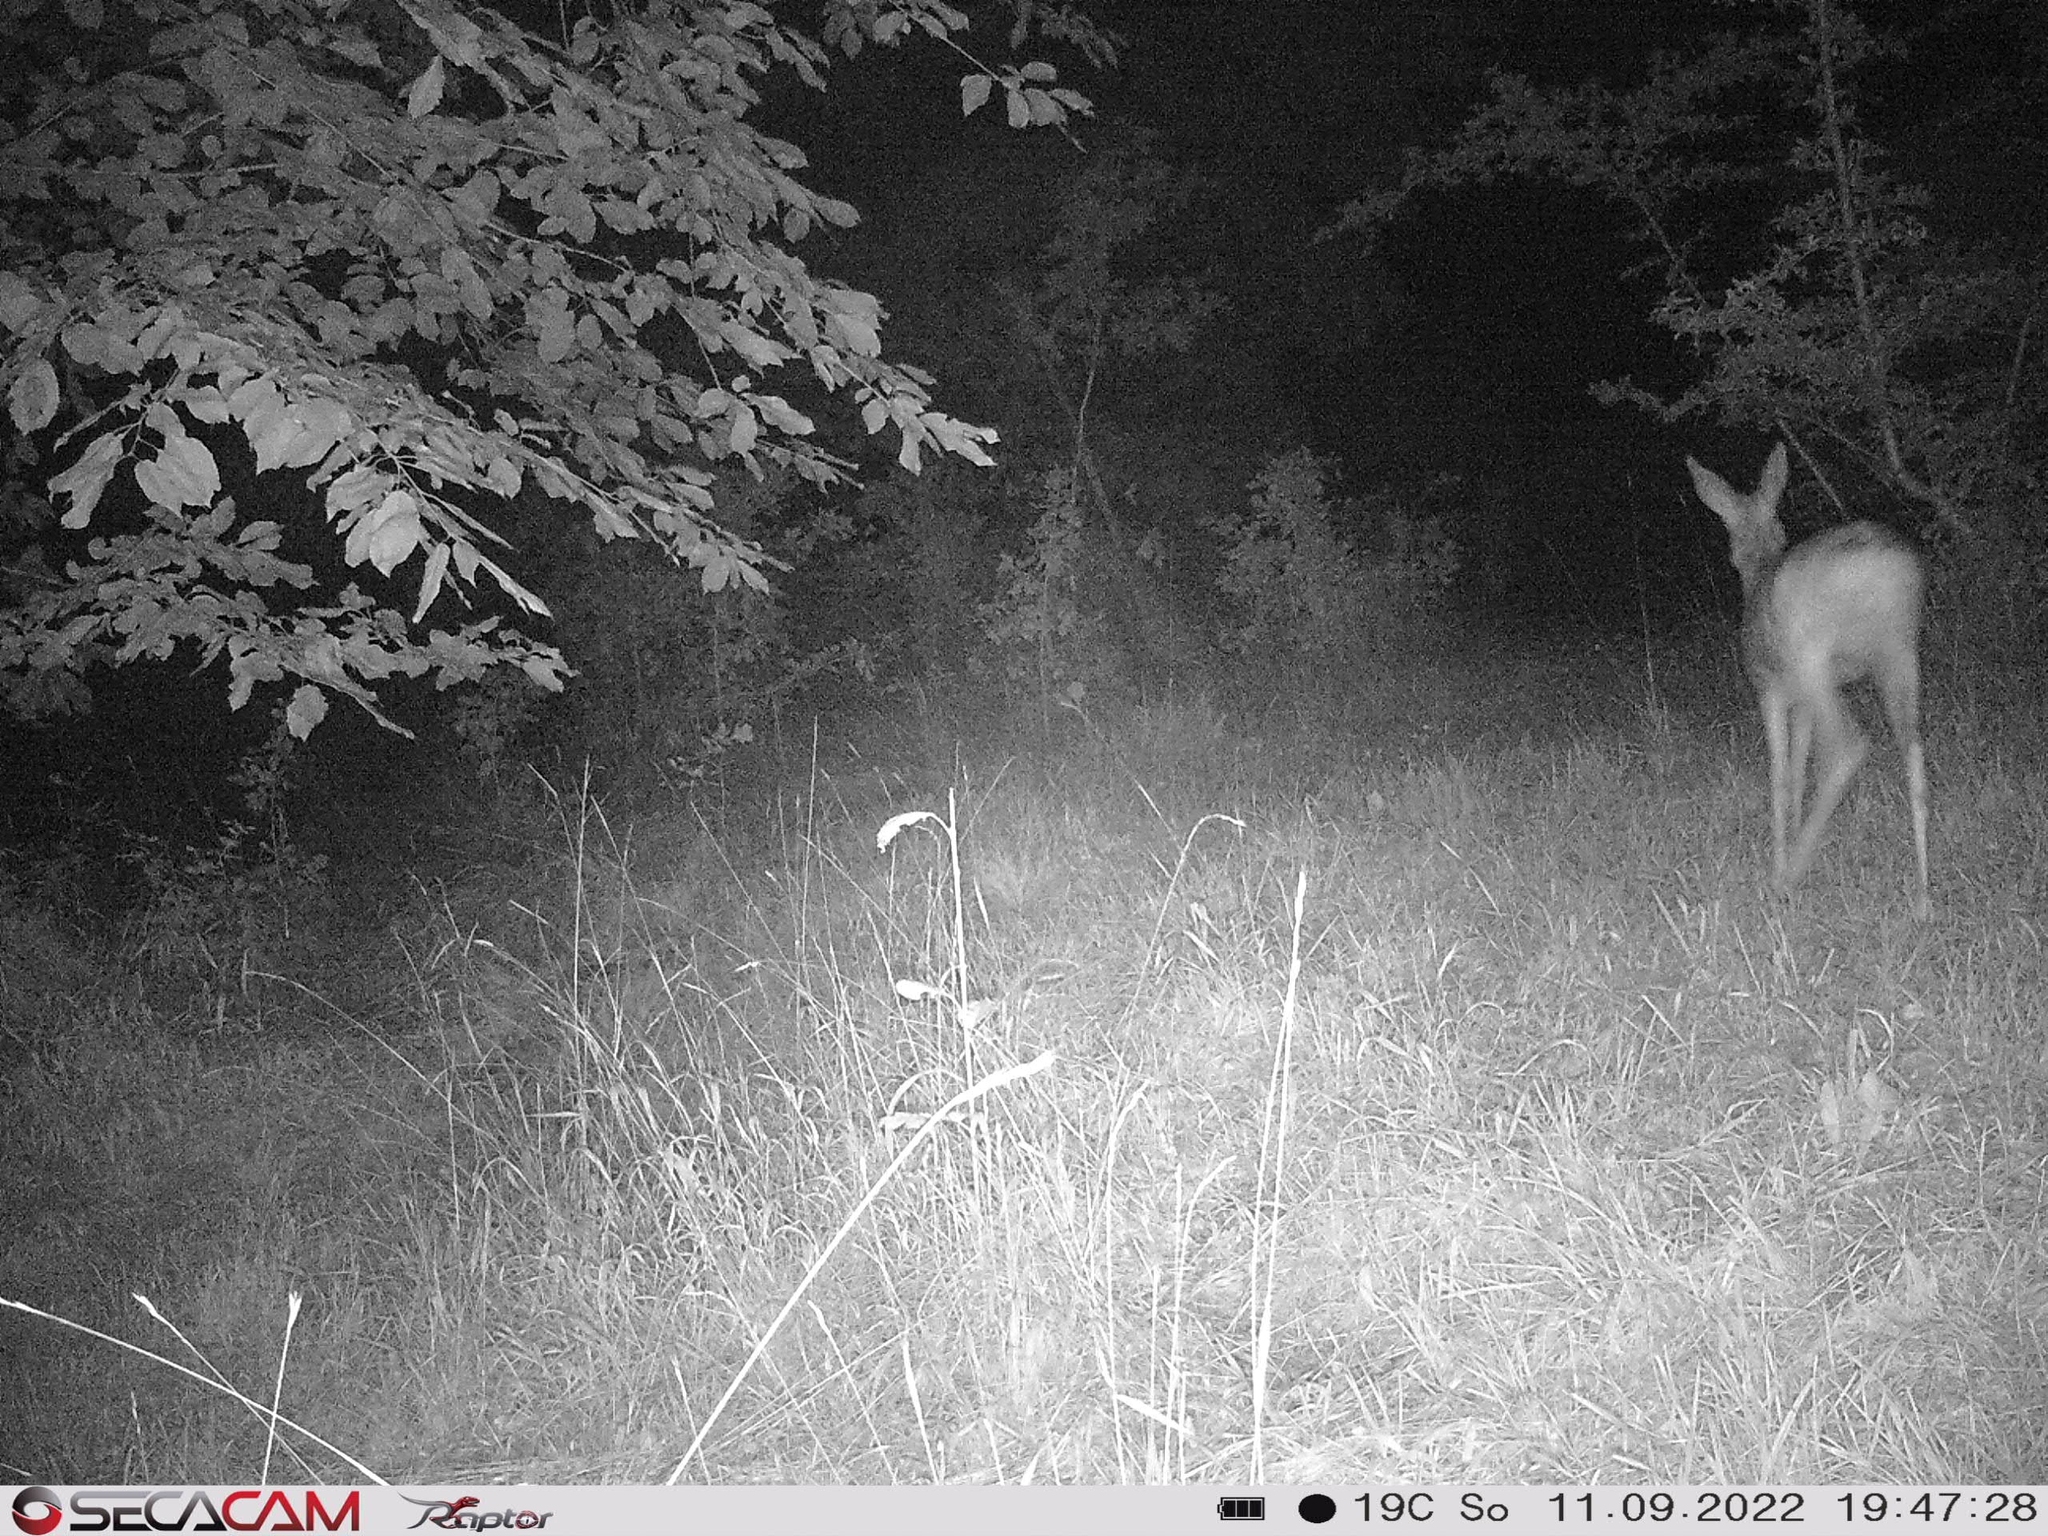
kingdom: Animalia
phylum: Chordata
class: Mammalia
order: Artiodactyla
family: Cervidae
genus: Capreolus
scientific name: Capreolus capreolus
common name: Western roe deer
